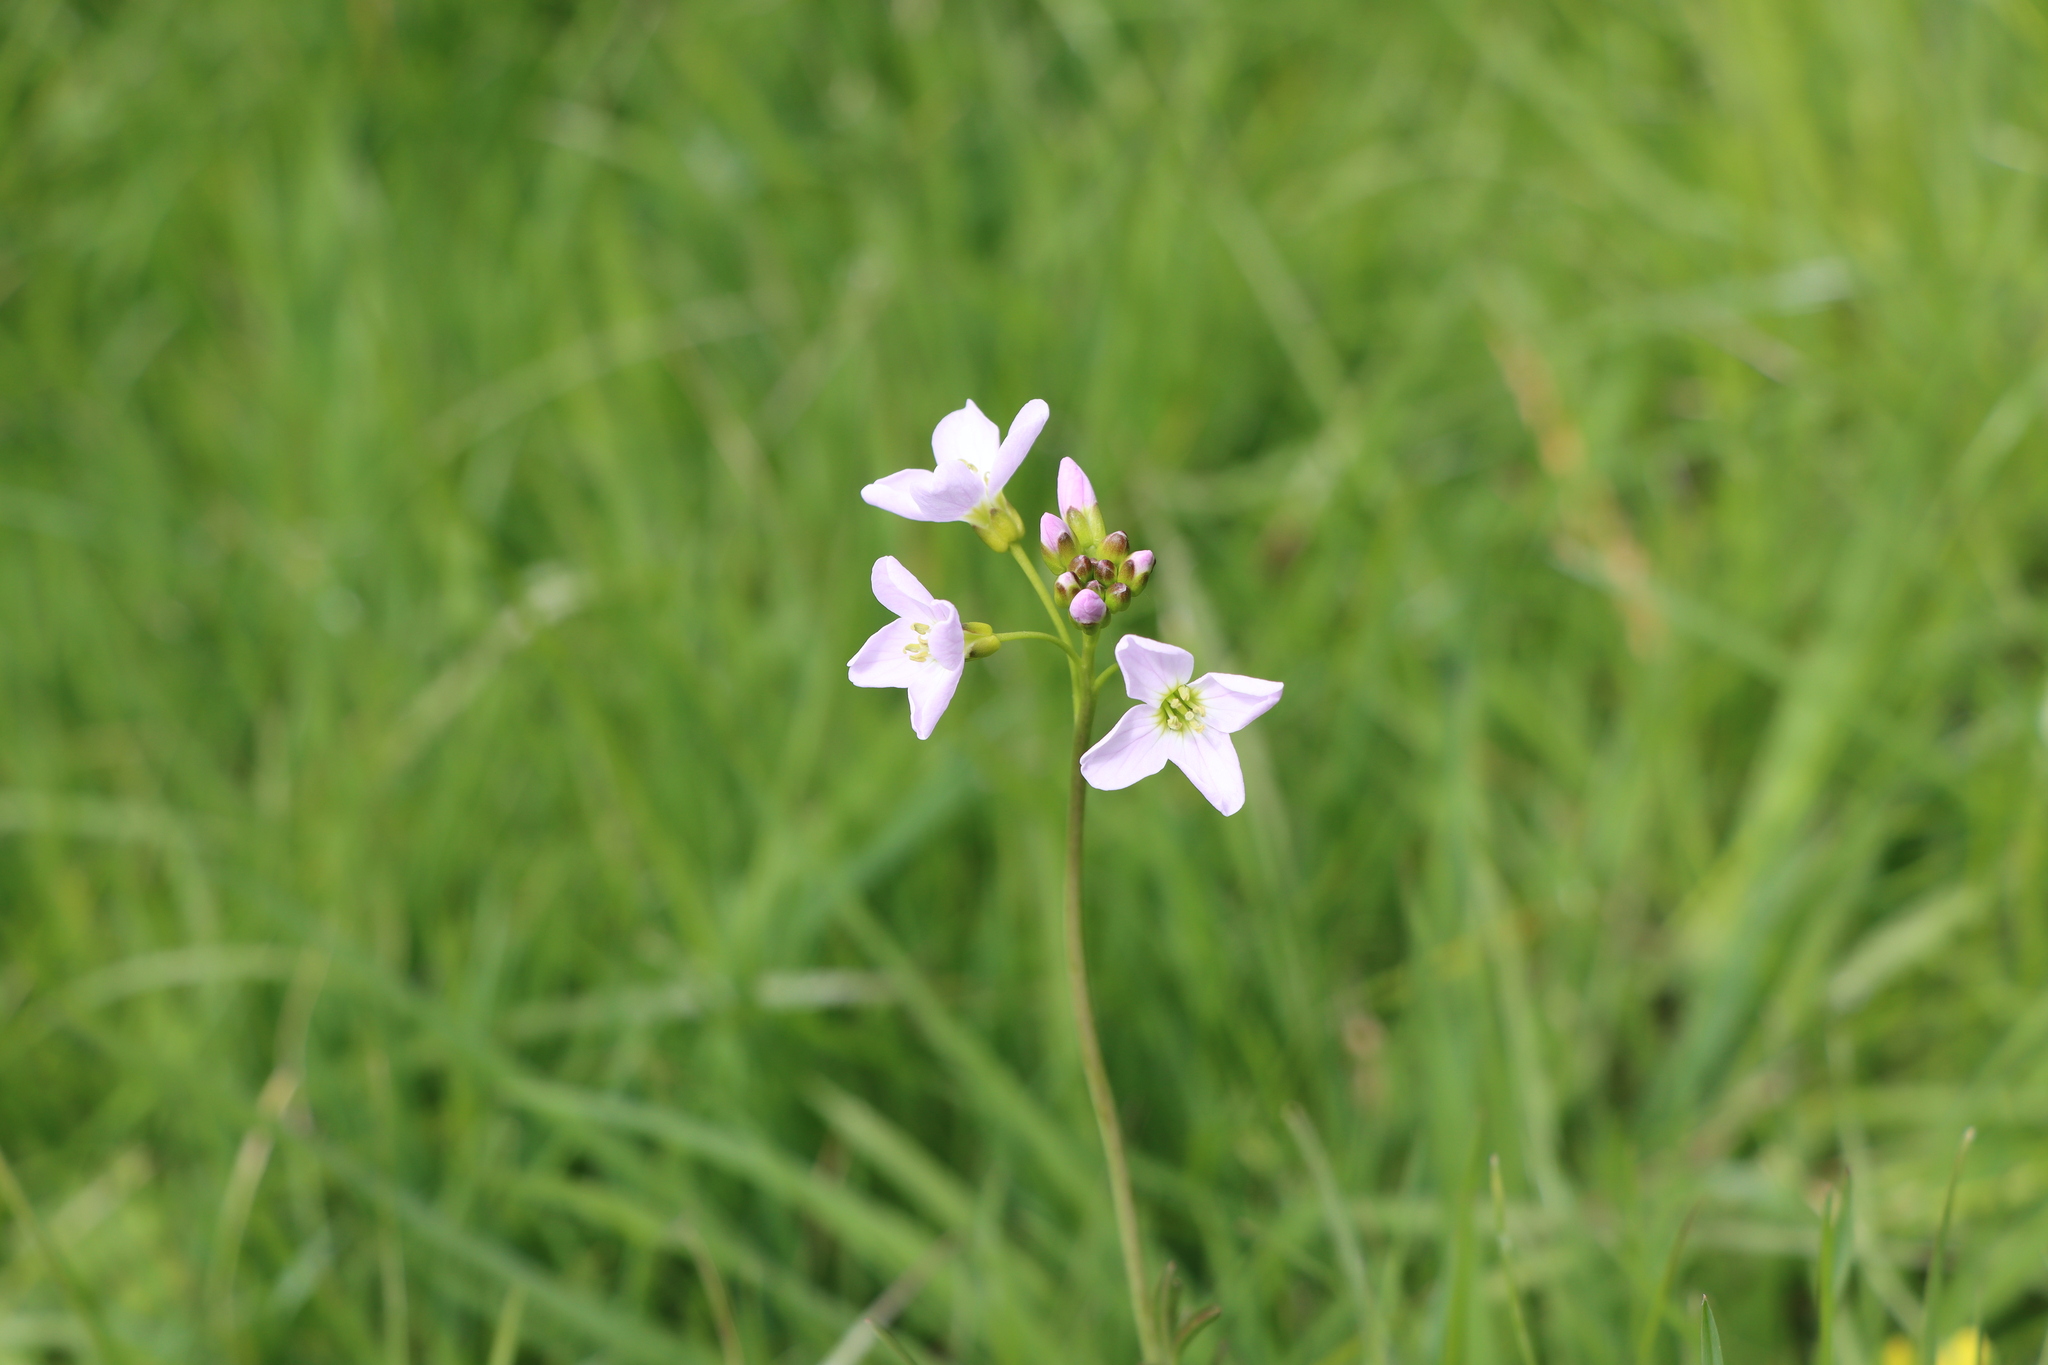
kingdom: Plantae
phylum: Tracheophyta
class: Magnoliopsida
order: Brassicales
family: Brassicaceae
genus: Cardamine
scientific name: Cardamine pratensis
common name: Cuckoo flower
